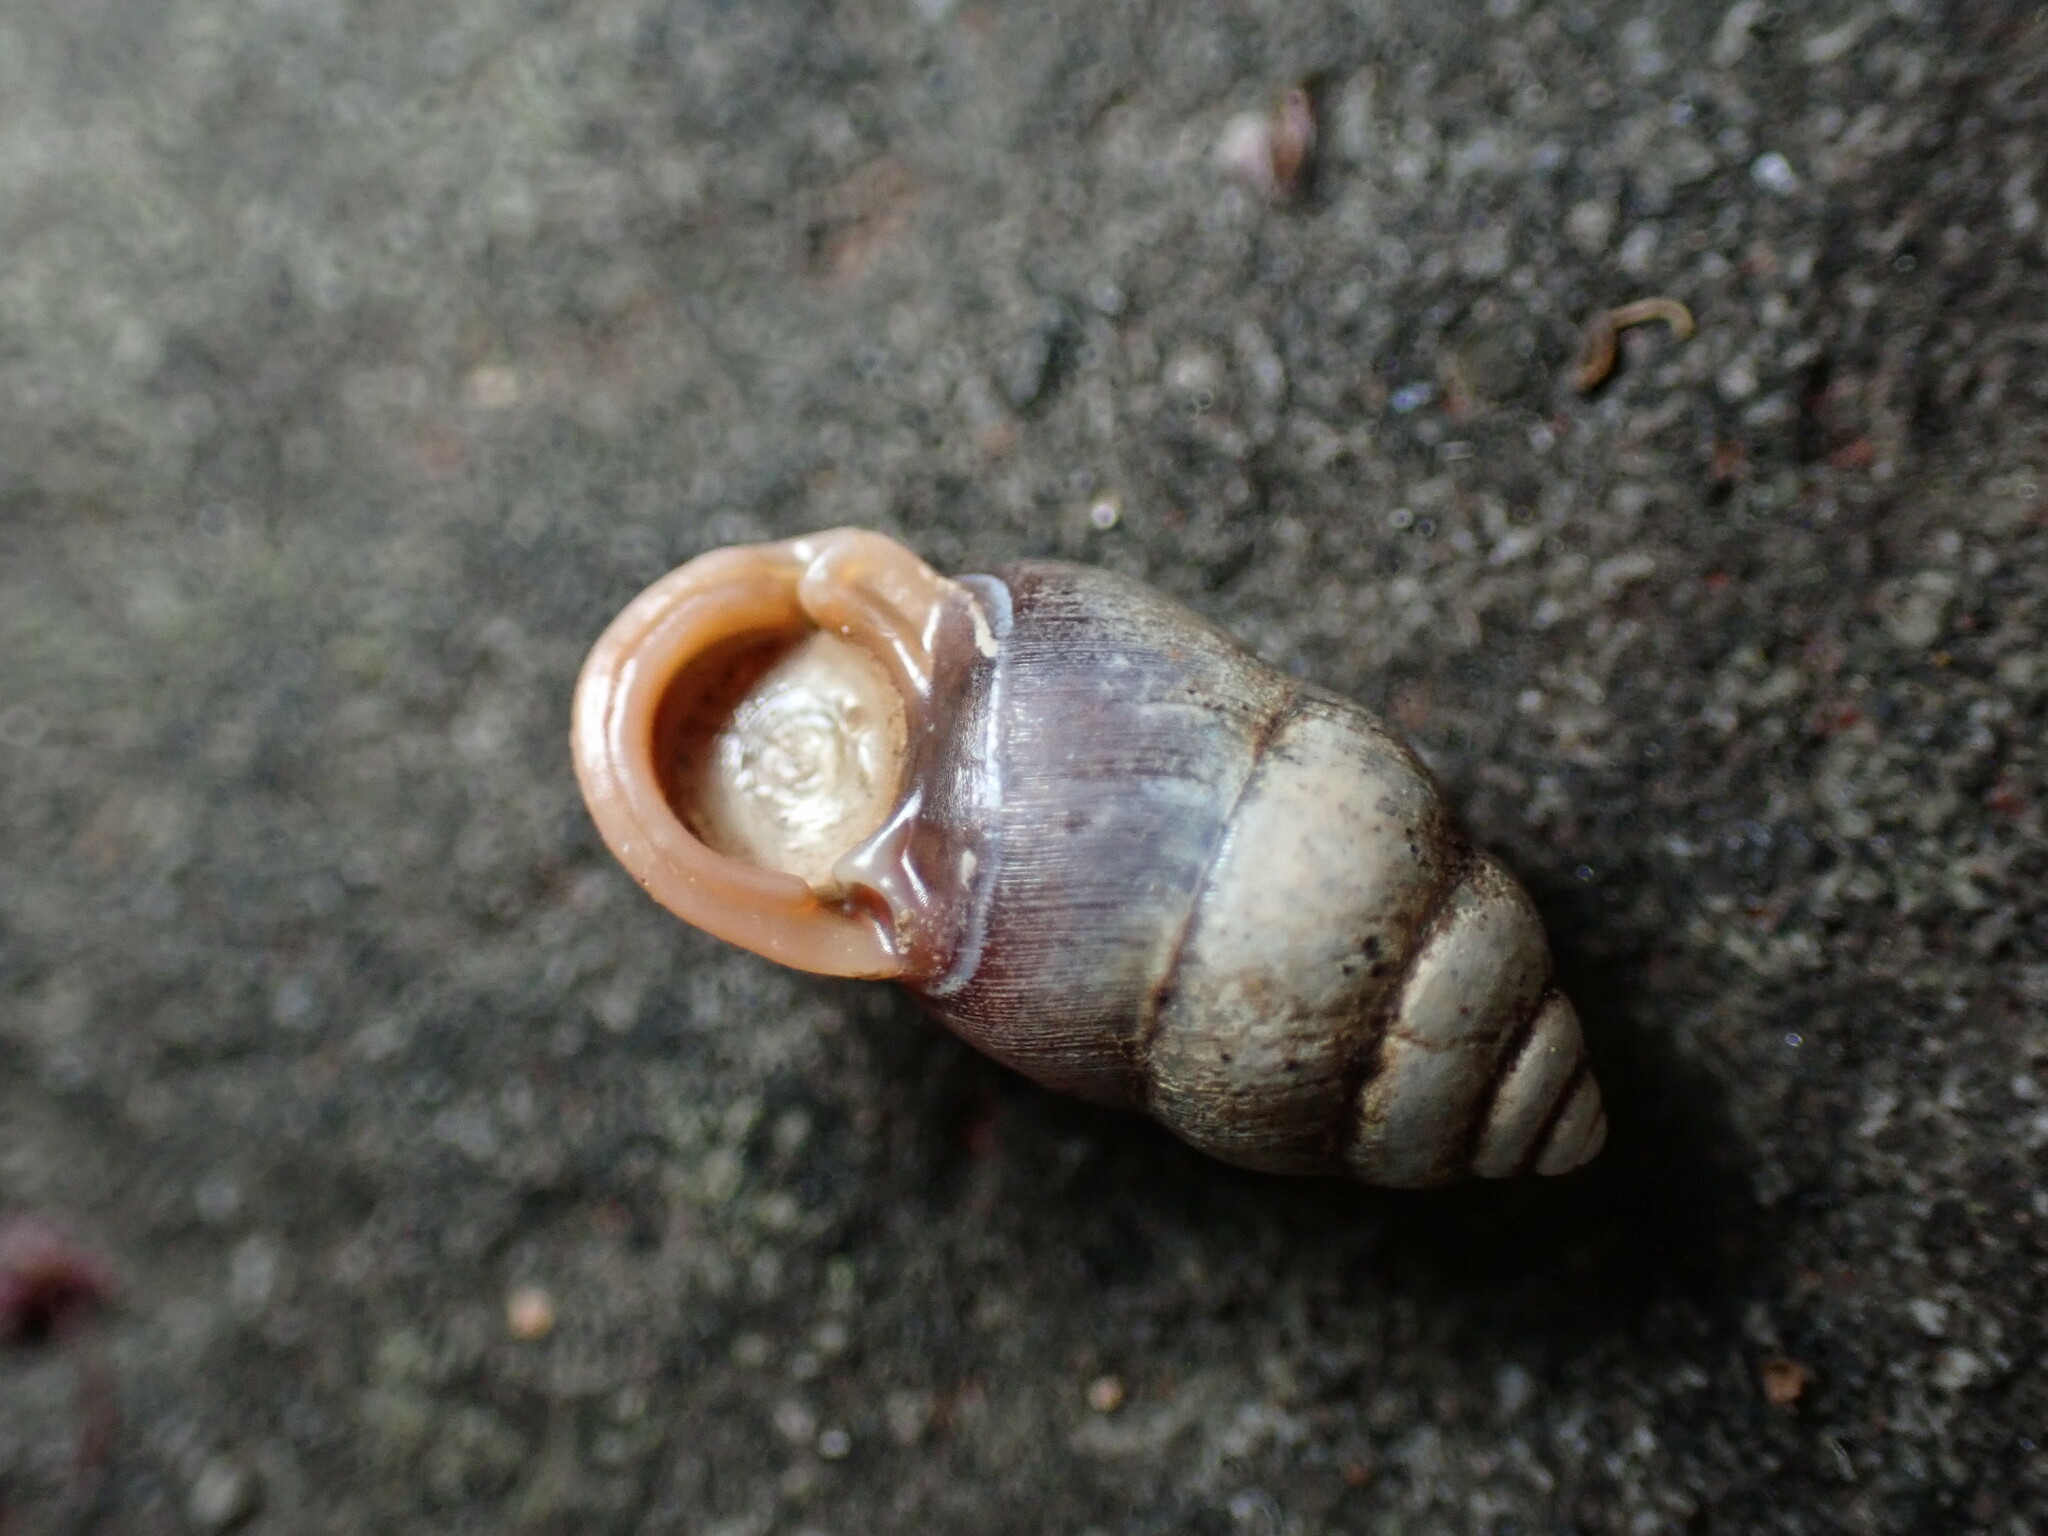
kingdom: Animalia
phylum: Mollusca
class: Gastropoda
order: Architaenioglossa
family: Pupinidae
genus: Pupinella
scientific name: Pupinella rufa
